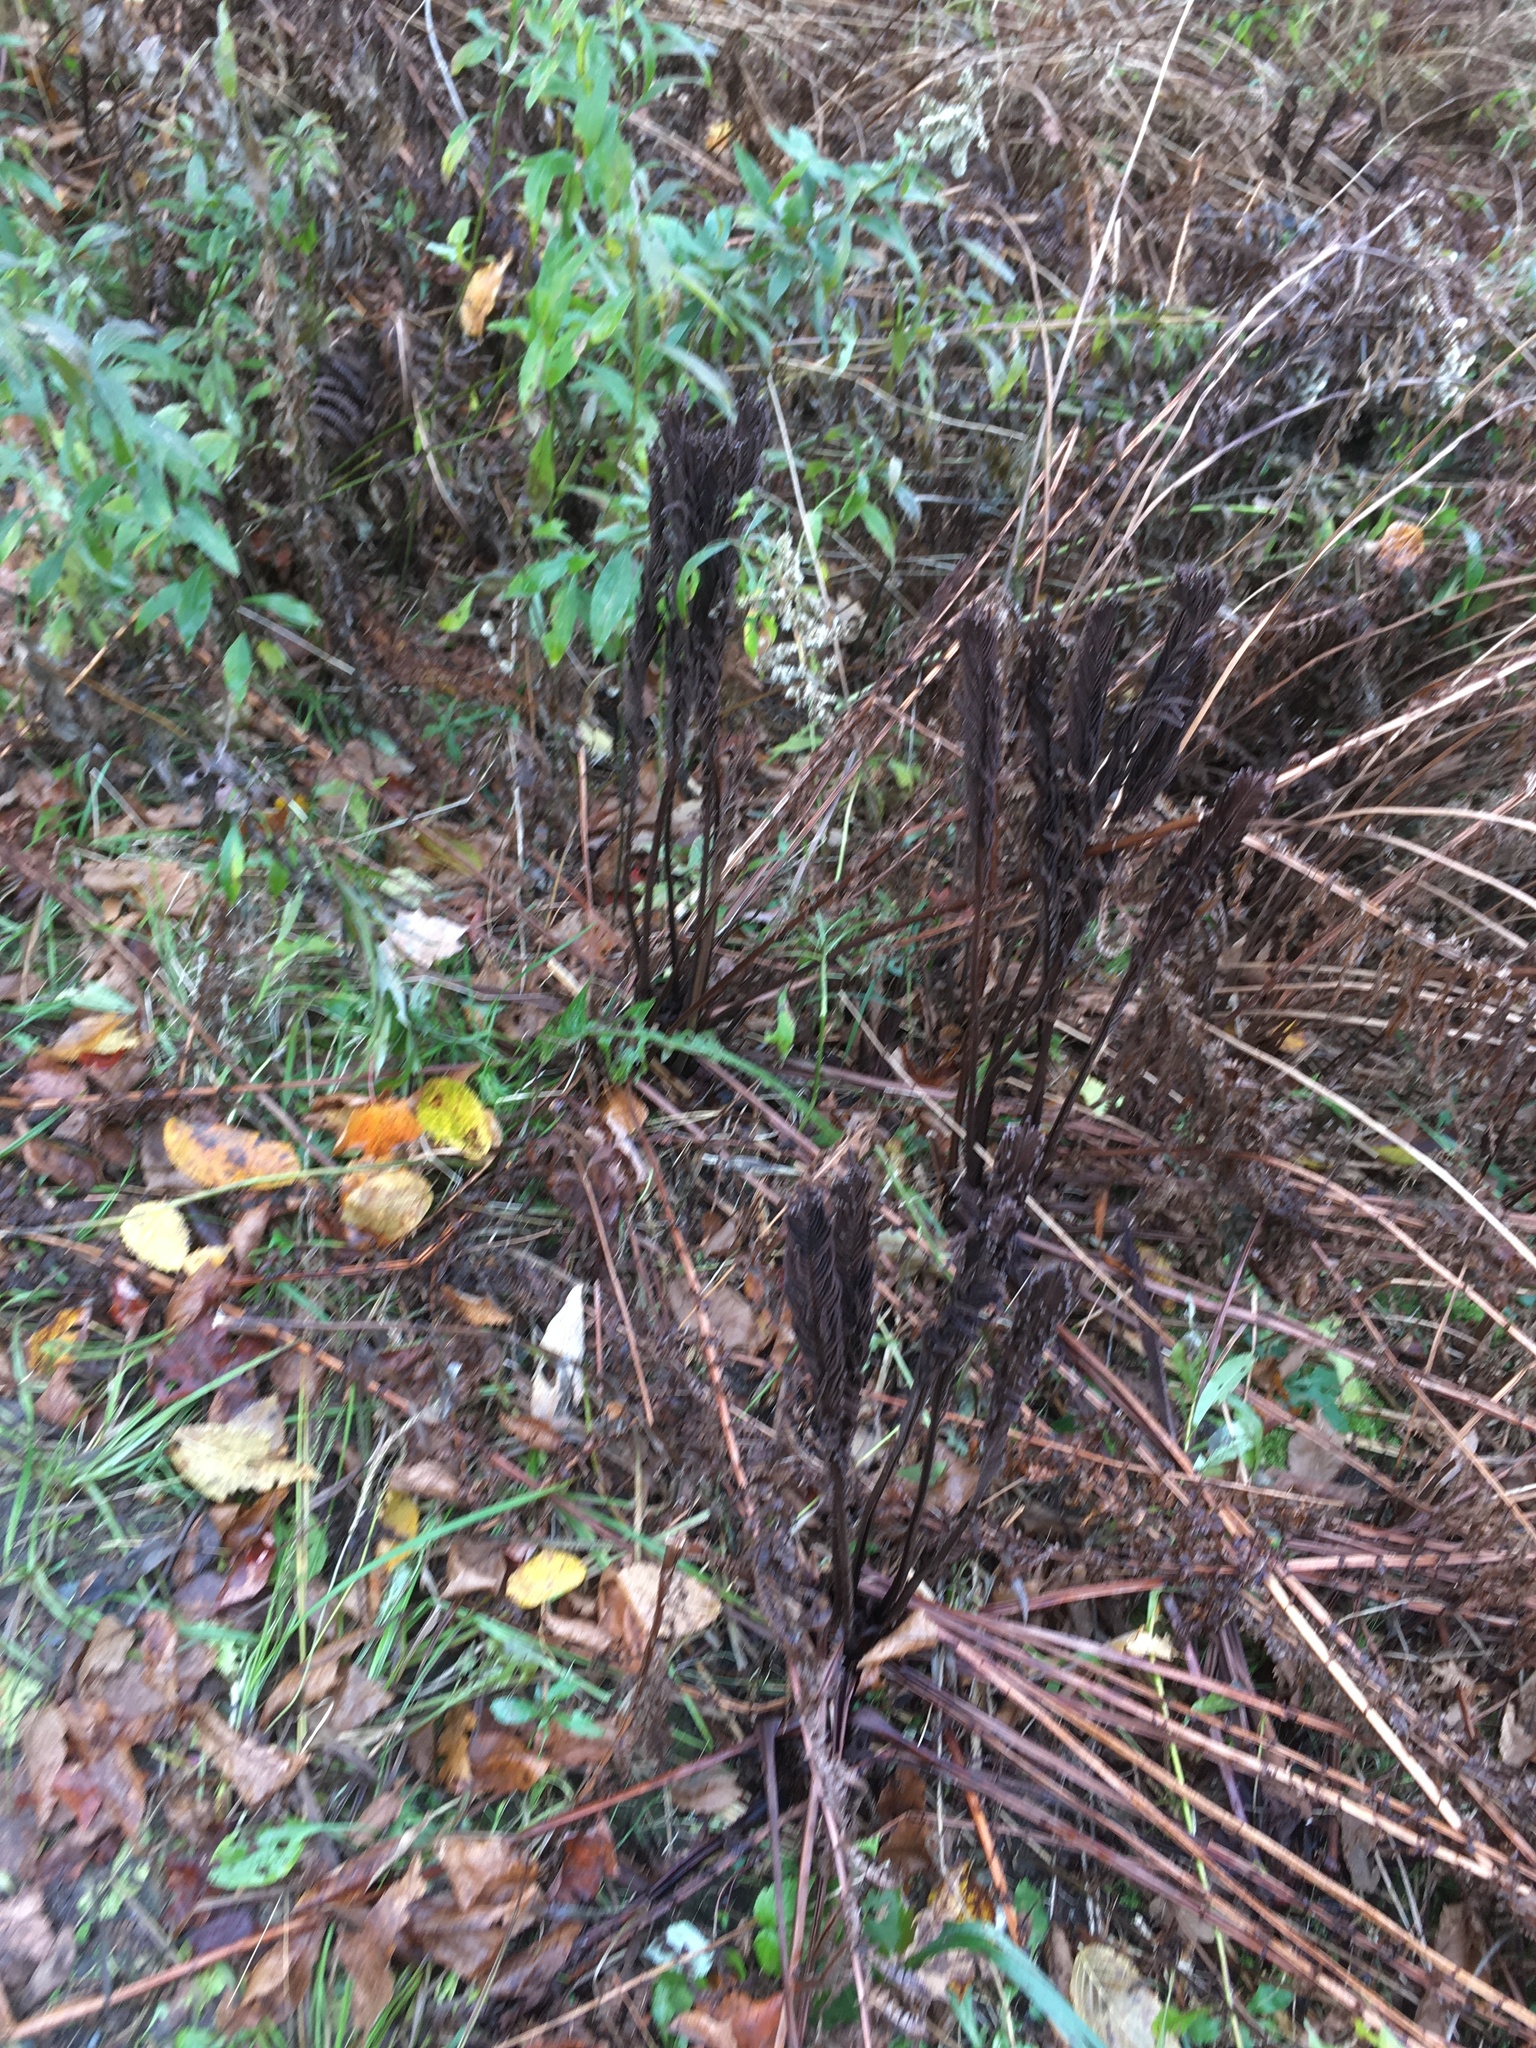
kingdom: Plantae
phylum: Tracheophyta
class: Polypodiopsida
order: Polypodiales
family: Onocleaceae
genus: Matteuccia
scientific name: Matteuccia struthiopteris
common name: Ostrich fern
